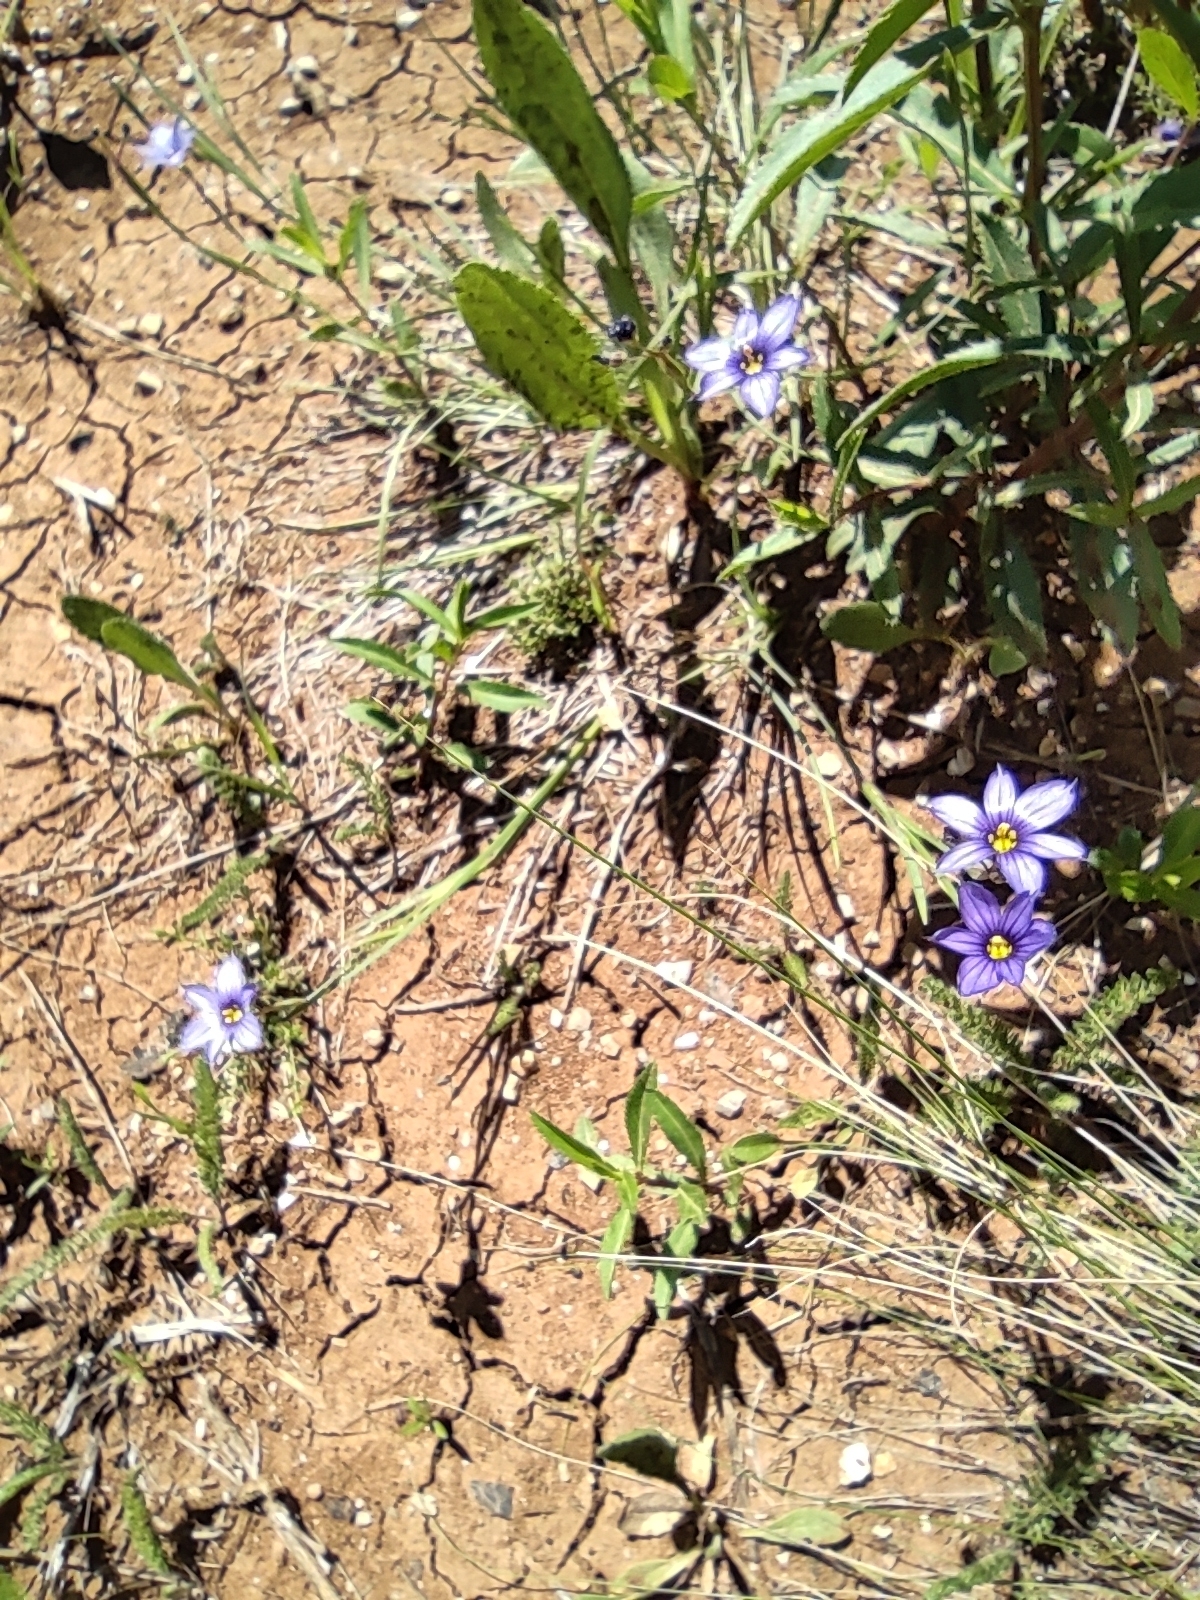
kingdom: Plantae
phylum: Tracheophyta
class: Liliopsida
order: Asparagales
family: Iridaceae
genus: Sisyrinchium
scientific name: Sisyrinchium scabrum
